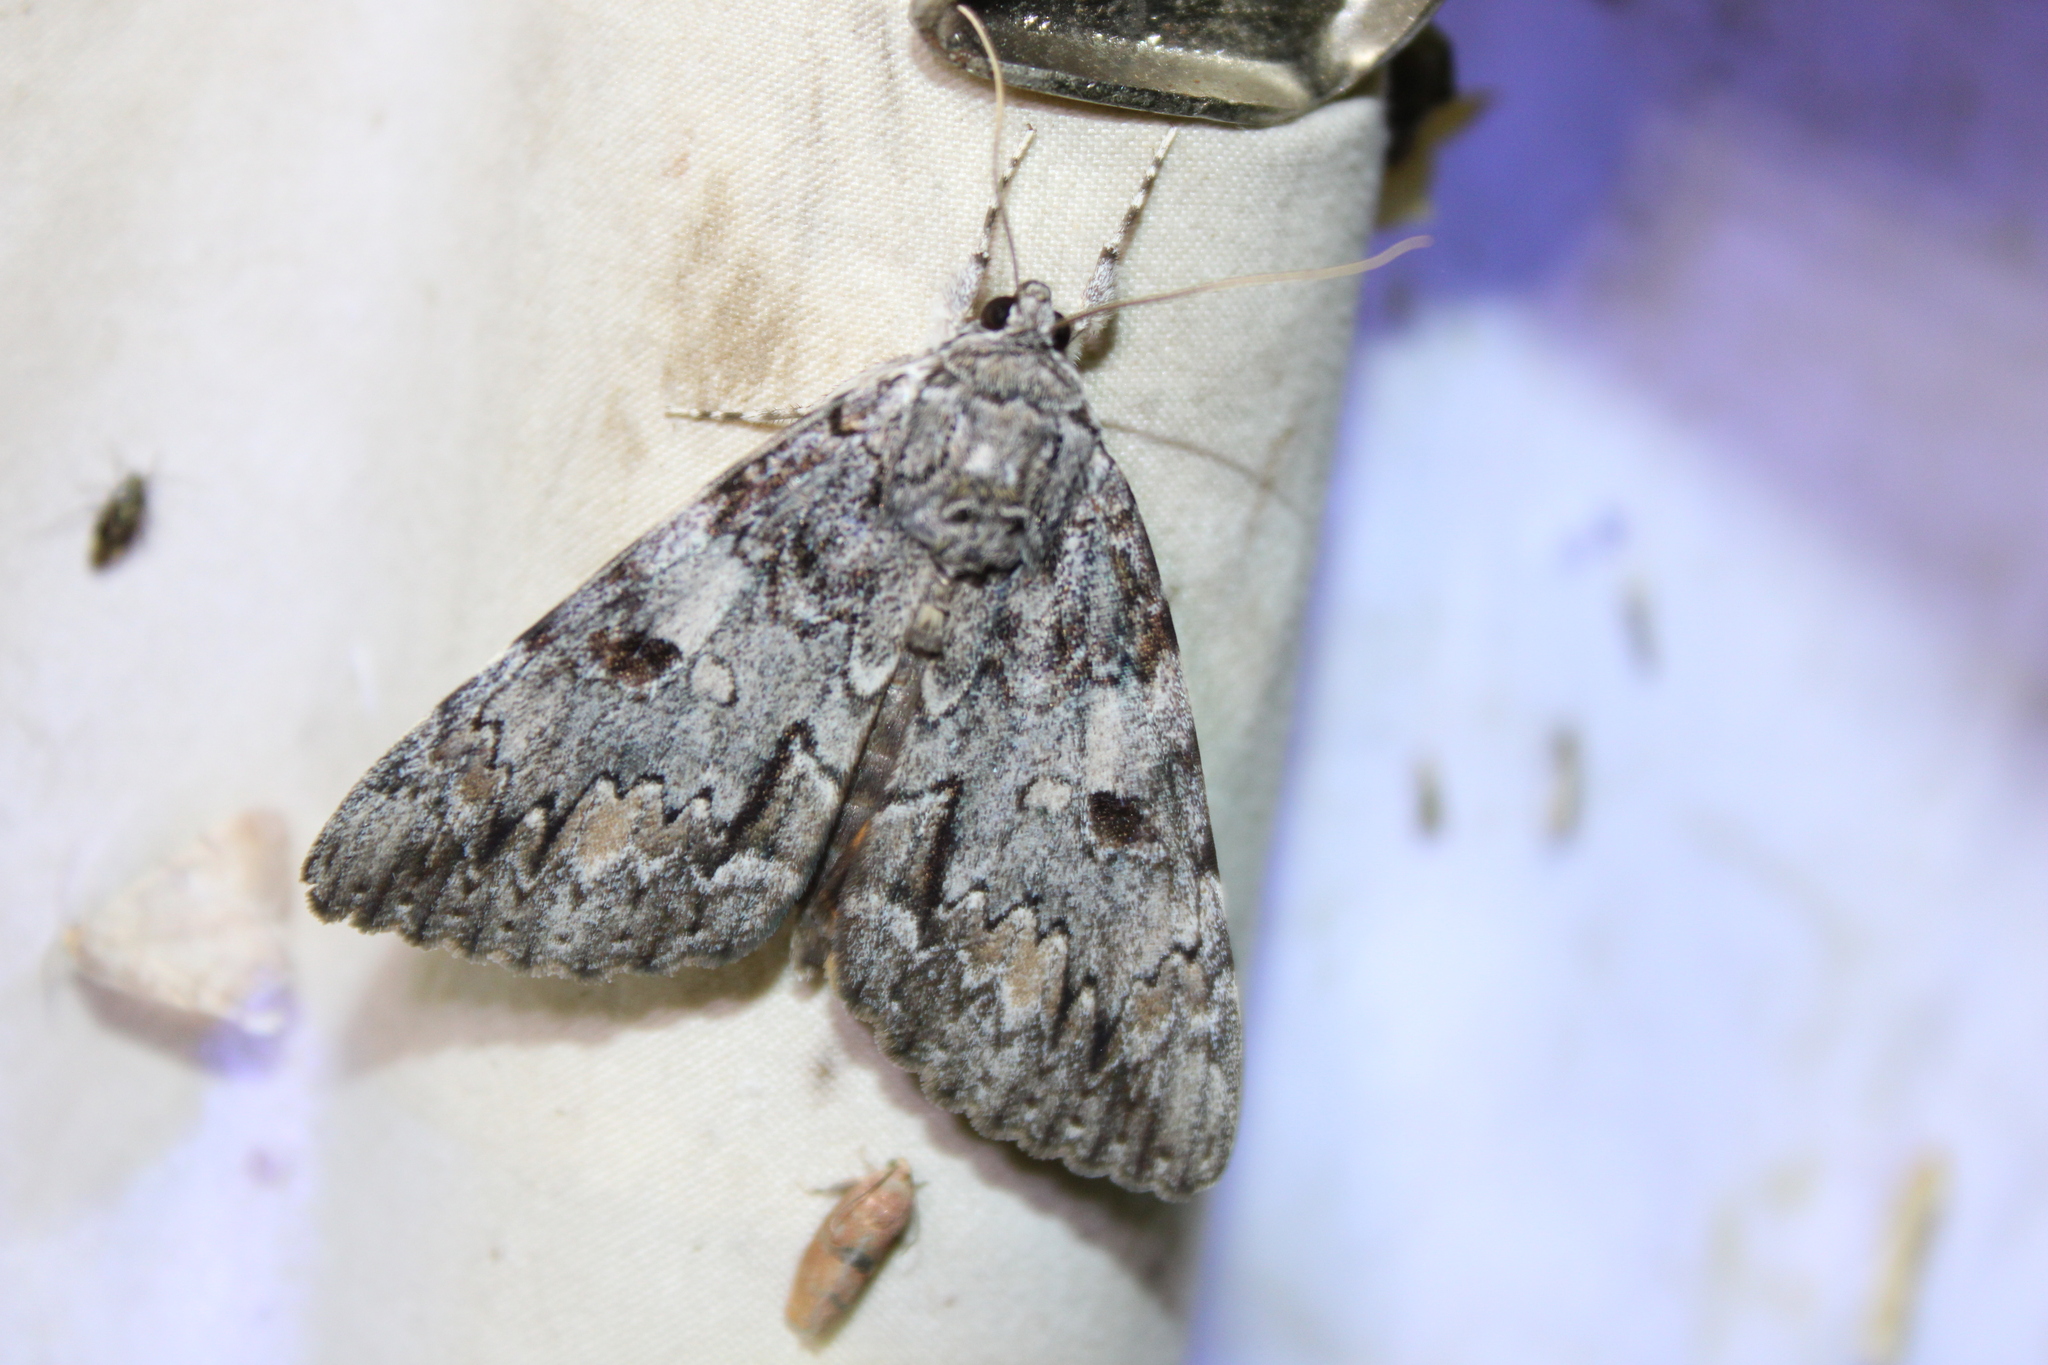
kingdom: Animalia
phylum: Arthropoda
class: Insecta
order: Lepidoptera
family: Erebidae
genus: Catocala
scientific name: Catocala palaeogama
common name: Oldwife underwing
